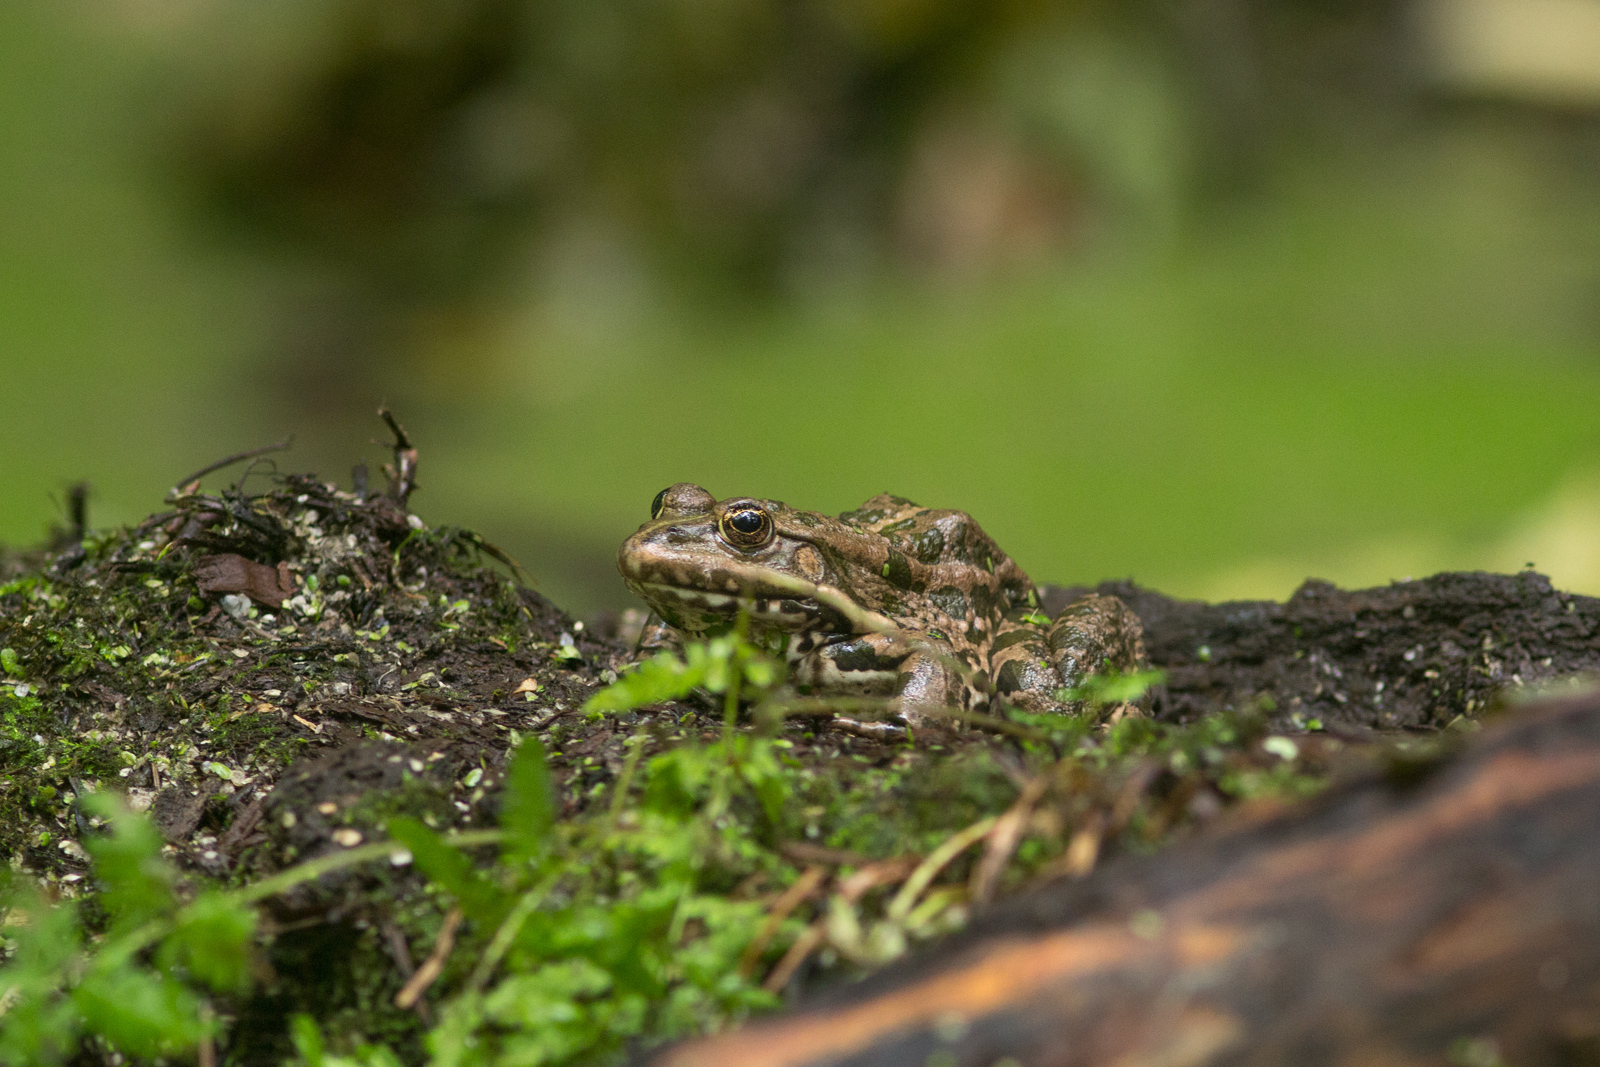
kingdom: Animalia
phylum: Chordata
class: Amphibia
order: Anura
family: Ranidae
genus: Pelophylax
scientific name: Pelophylax ridibundus
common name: Marsh frog
